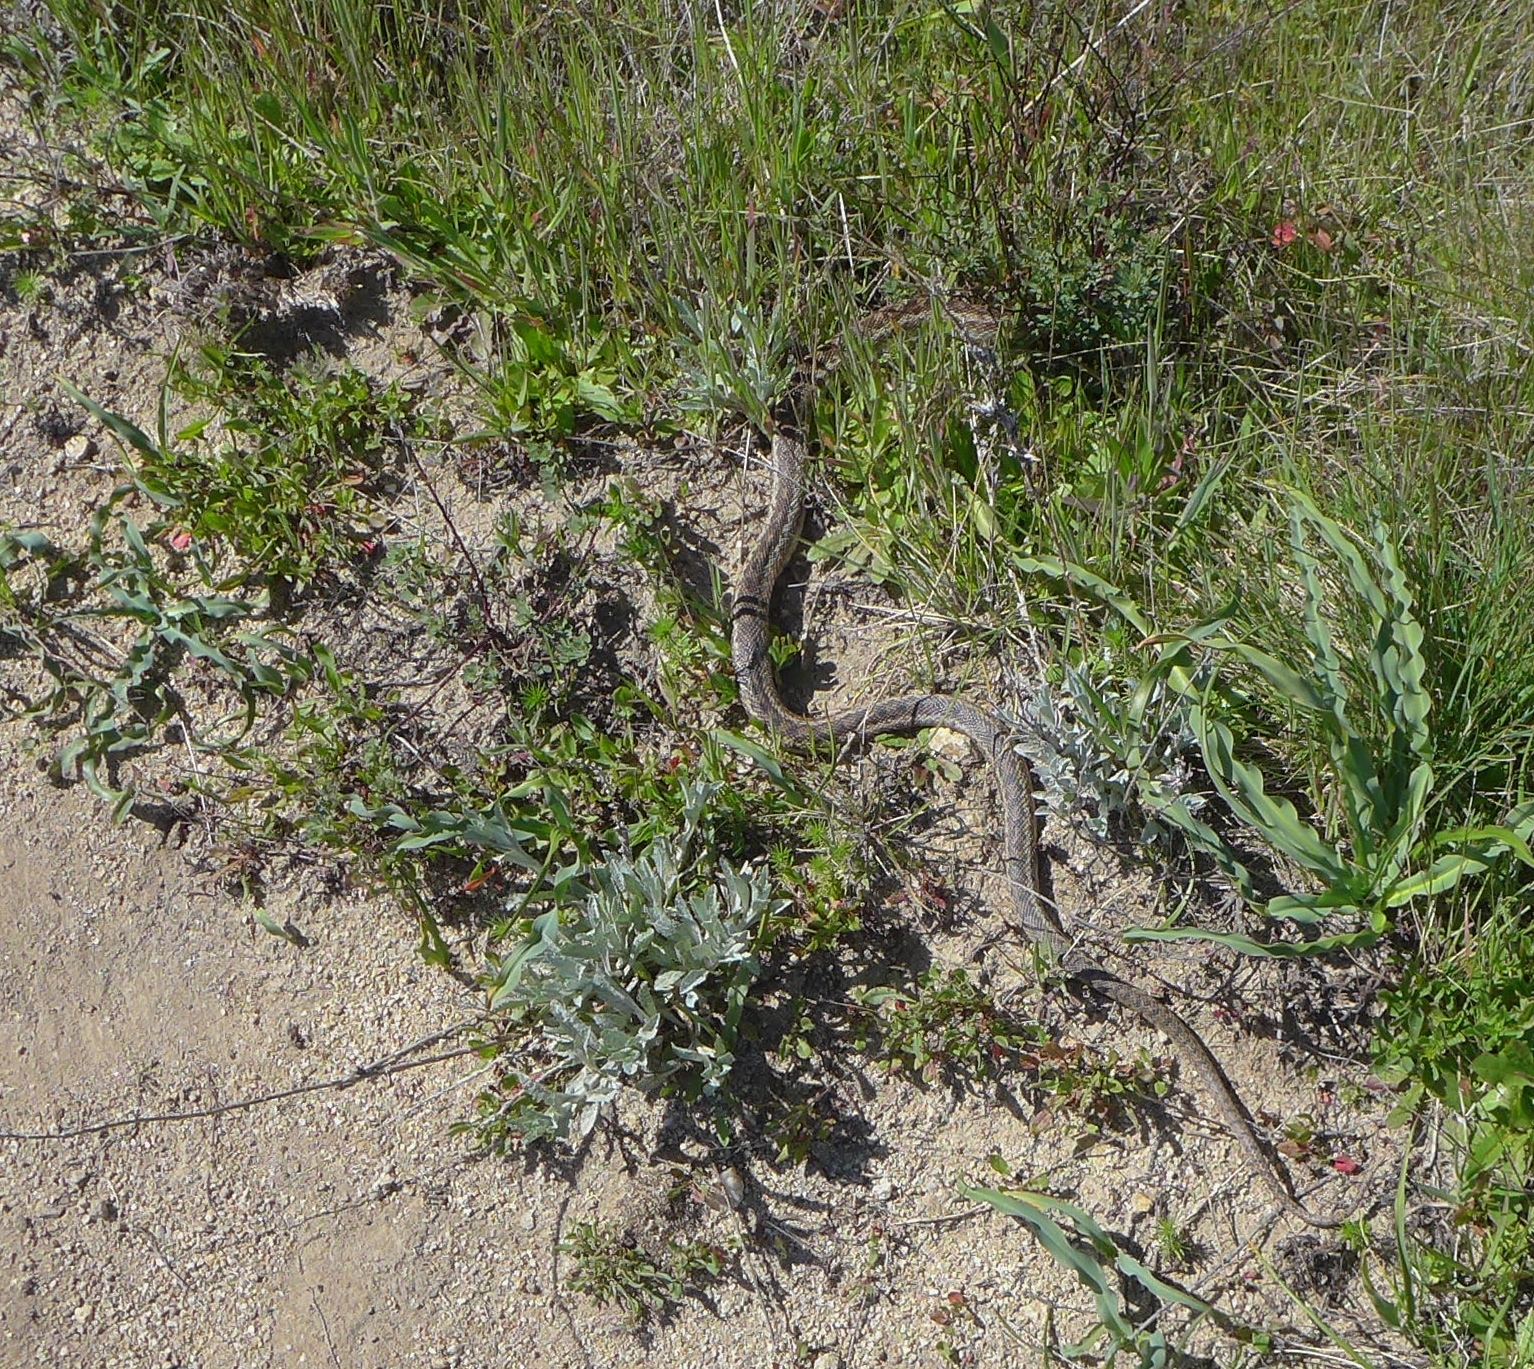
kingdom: Animalia
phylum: Chordata
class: Squamata
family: Colubridae
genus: Pituophis
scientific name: Pituophis catenifer
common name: Gopher snake
